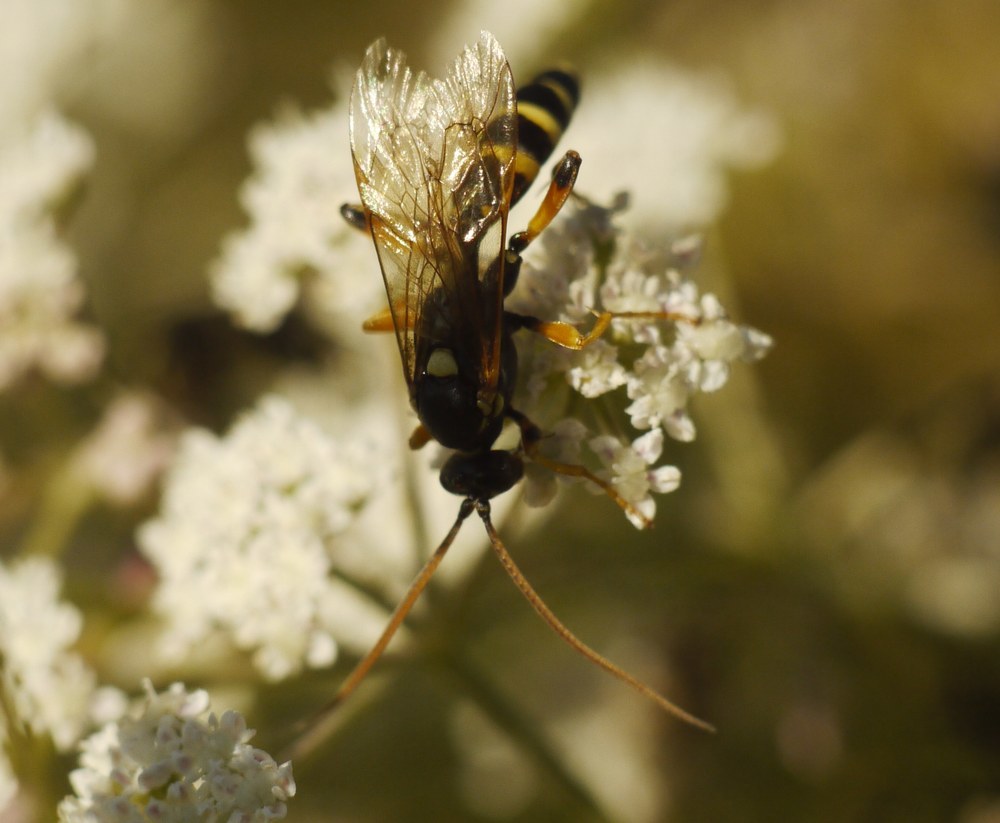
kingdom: Animalia
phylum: Arthropoda
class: Insecta
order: Hymenoptera
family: Ichneumonidae
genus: Ichneumon
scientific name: Ichneumon sarcitorius
